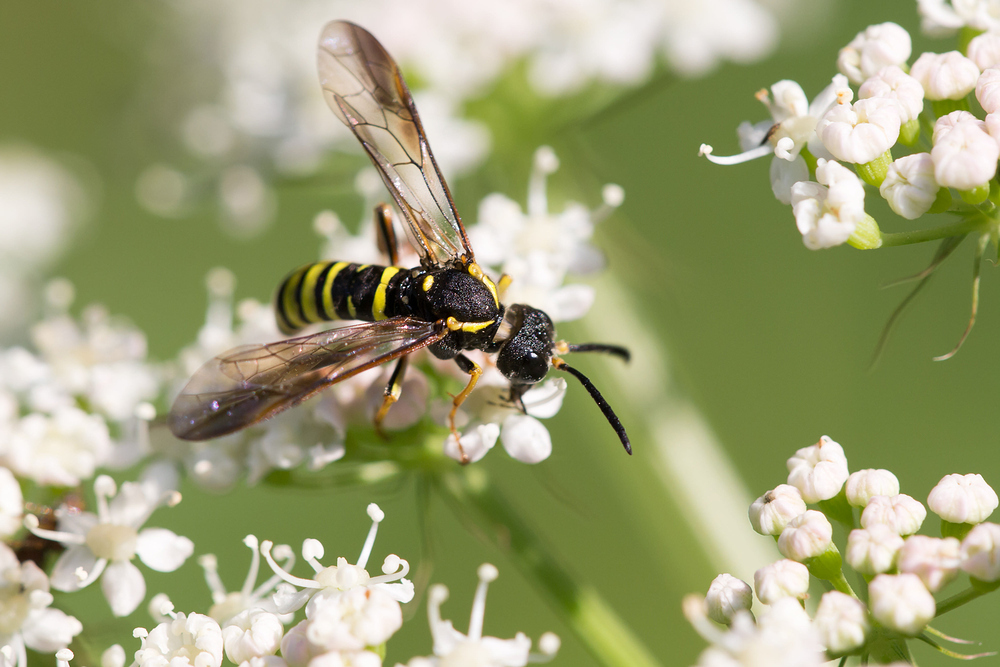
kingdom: Animalia
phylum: Arthropoda
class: Insecta
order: Hymenoptera
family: Tenthredinidae
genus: Tenthredo
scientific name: Tenthredo vespa
